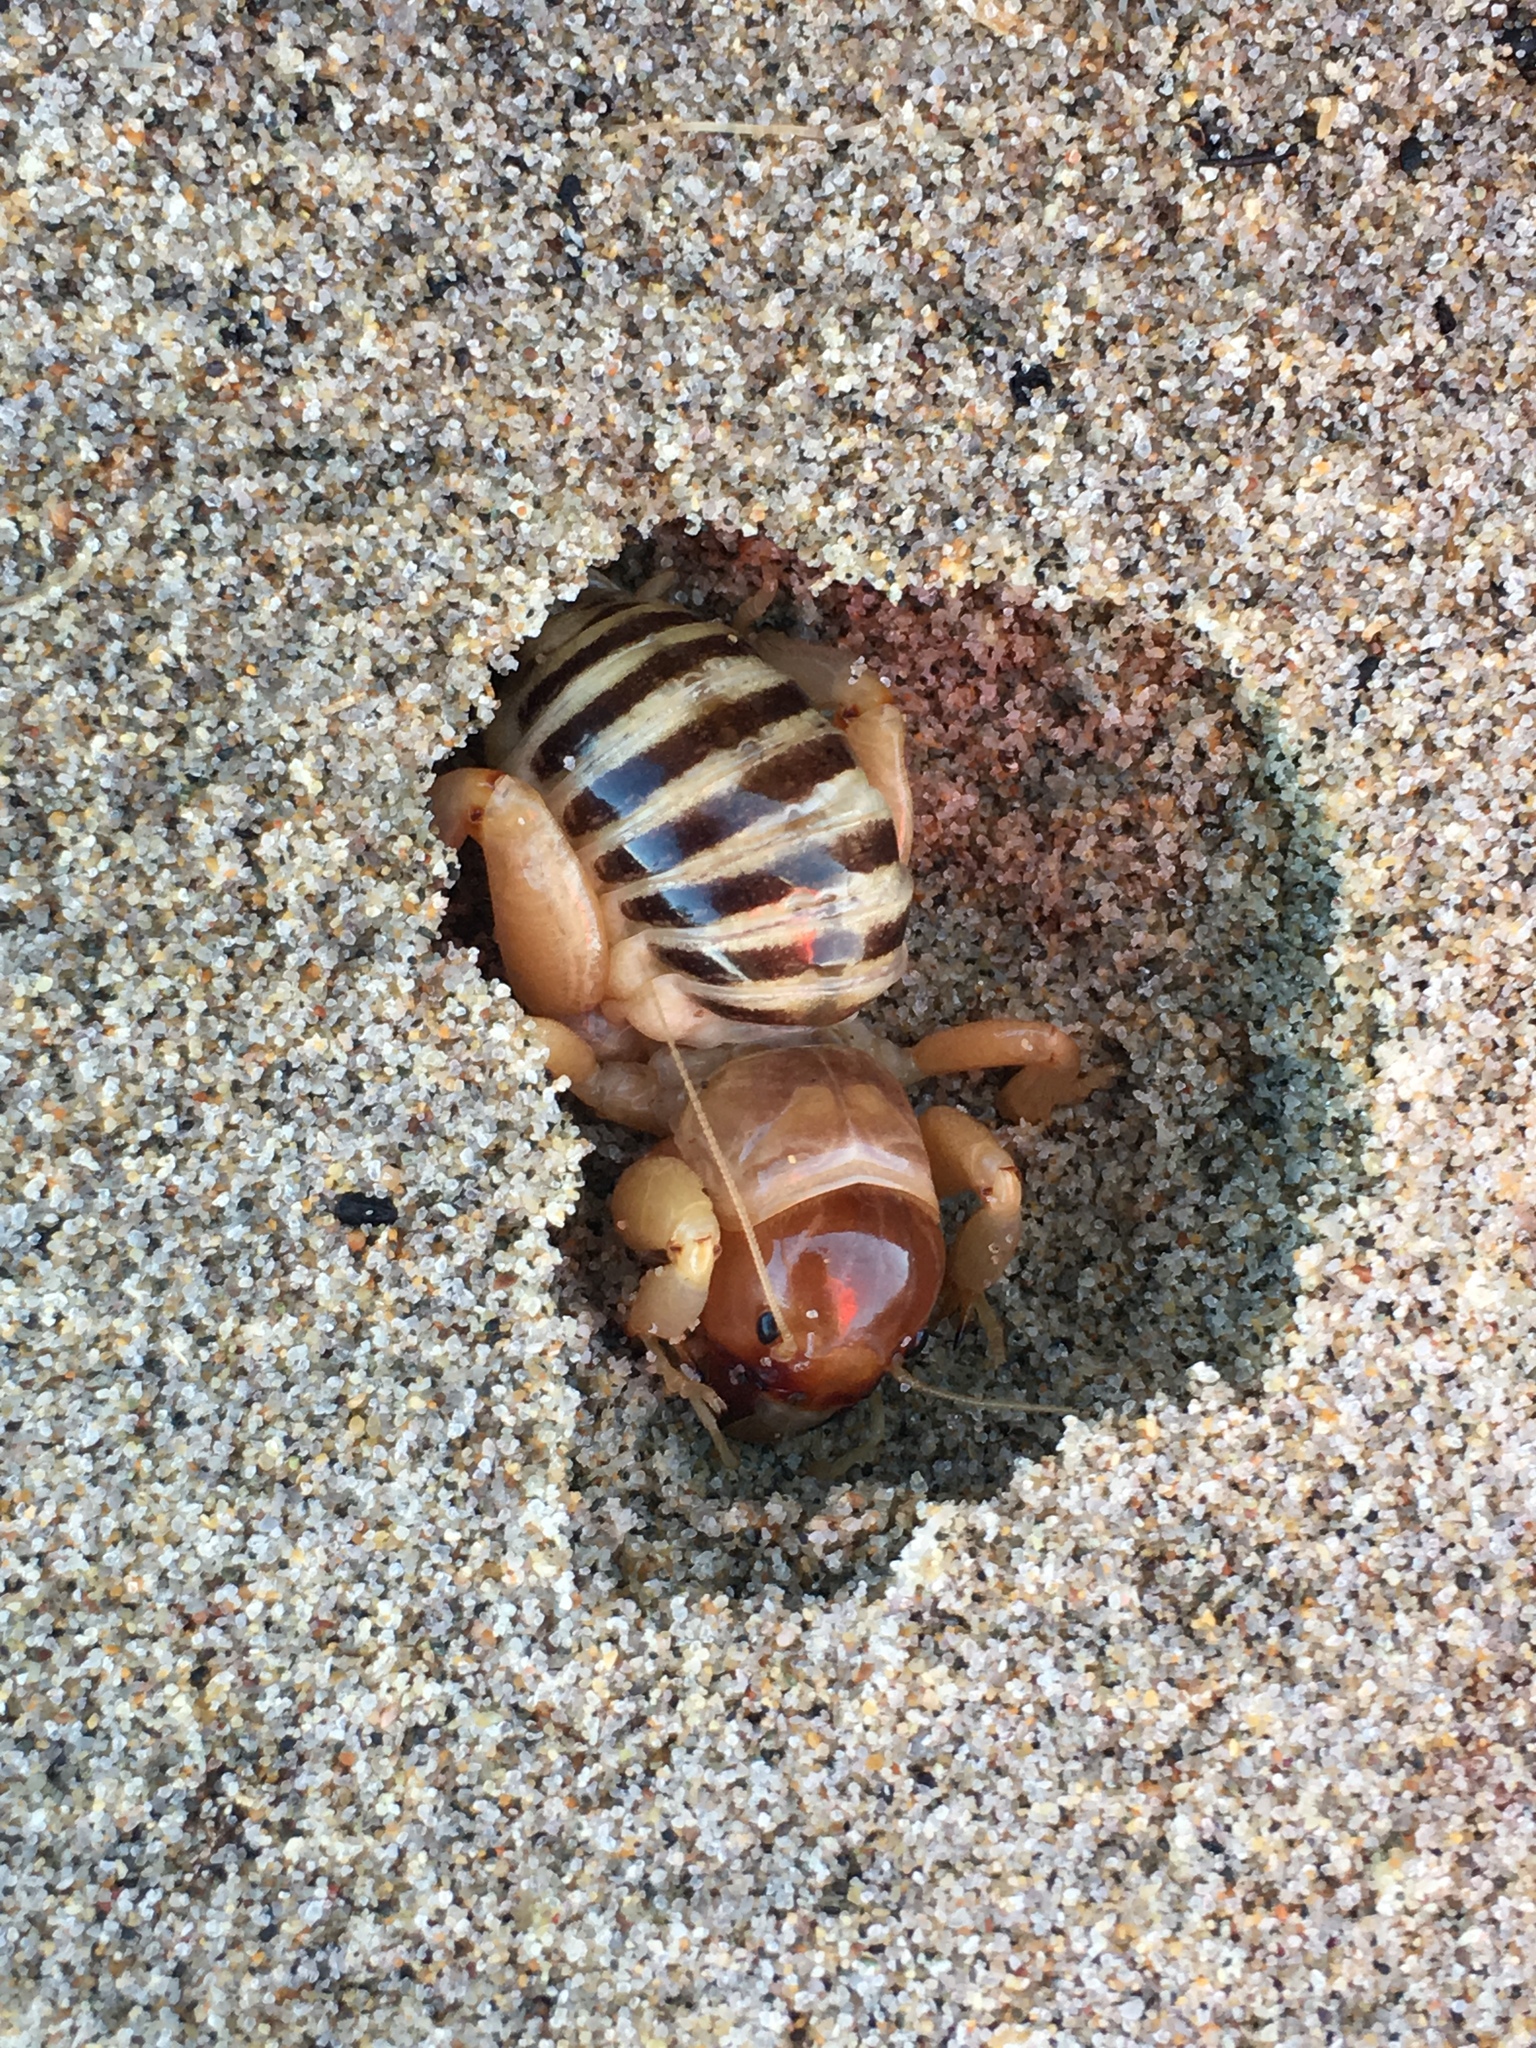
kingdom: Animalia
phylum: Arthropoda
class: Insecta
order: Orthoptera
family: Stenopelmatidae
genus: Ammopelmatus
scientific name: Ammopelmatus muwu
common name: Port conception jerusalem cricket
